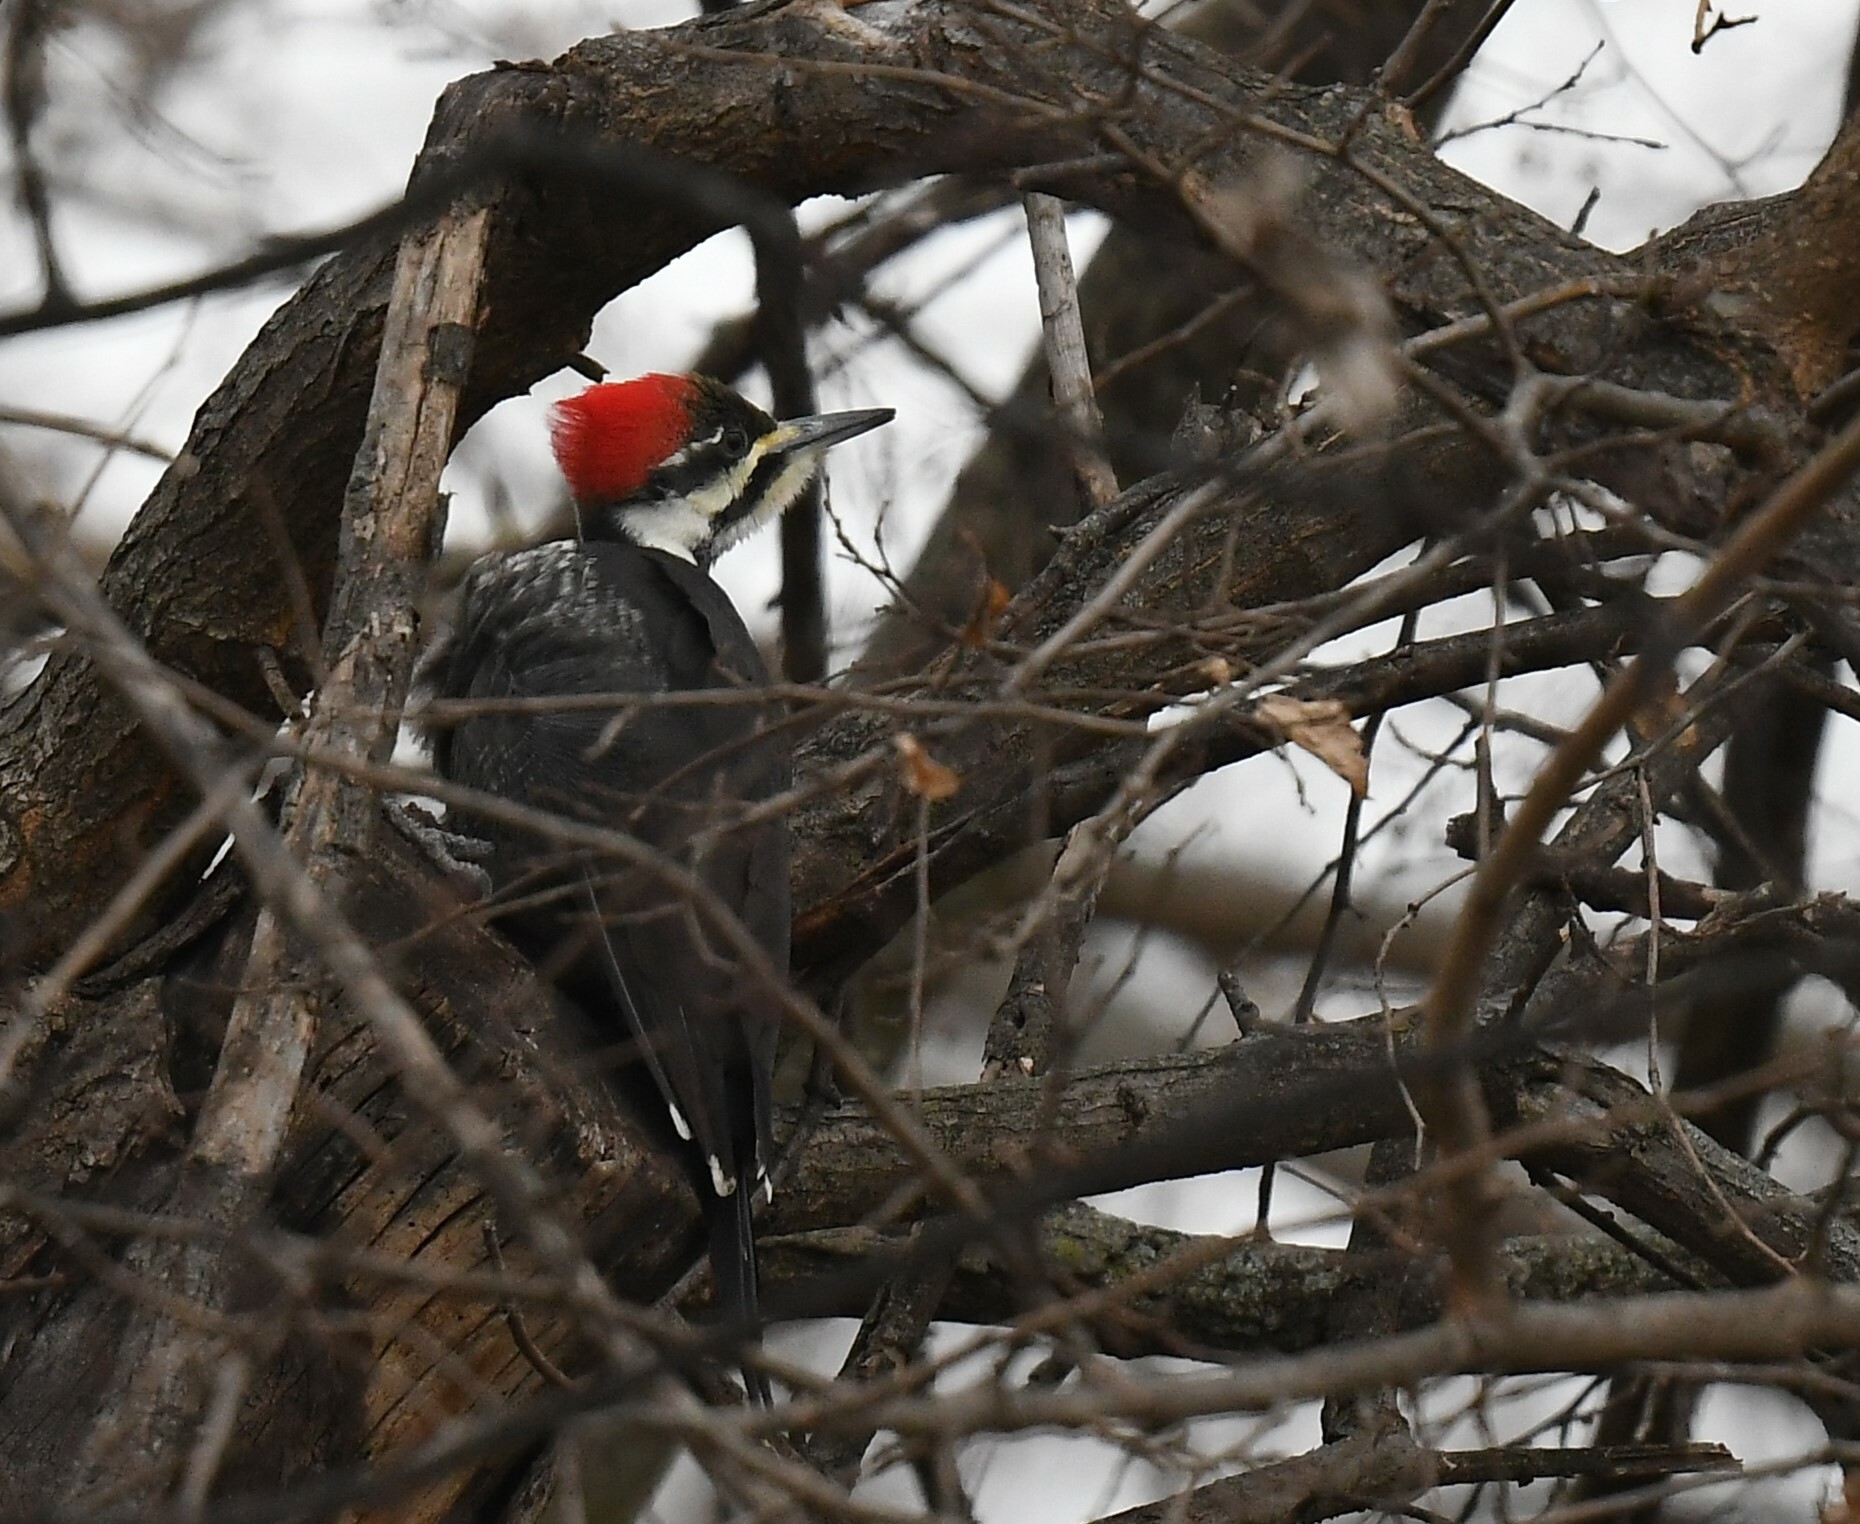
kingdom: Animalia
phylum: Chordata
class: Aves
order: Piciformes
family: Picidae
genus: Dryocopus
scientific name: Dryocopus pileatus
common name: Pileated woodpecker
